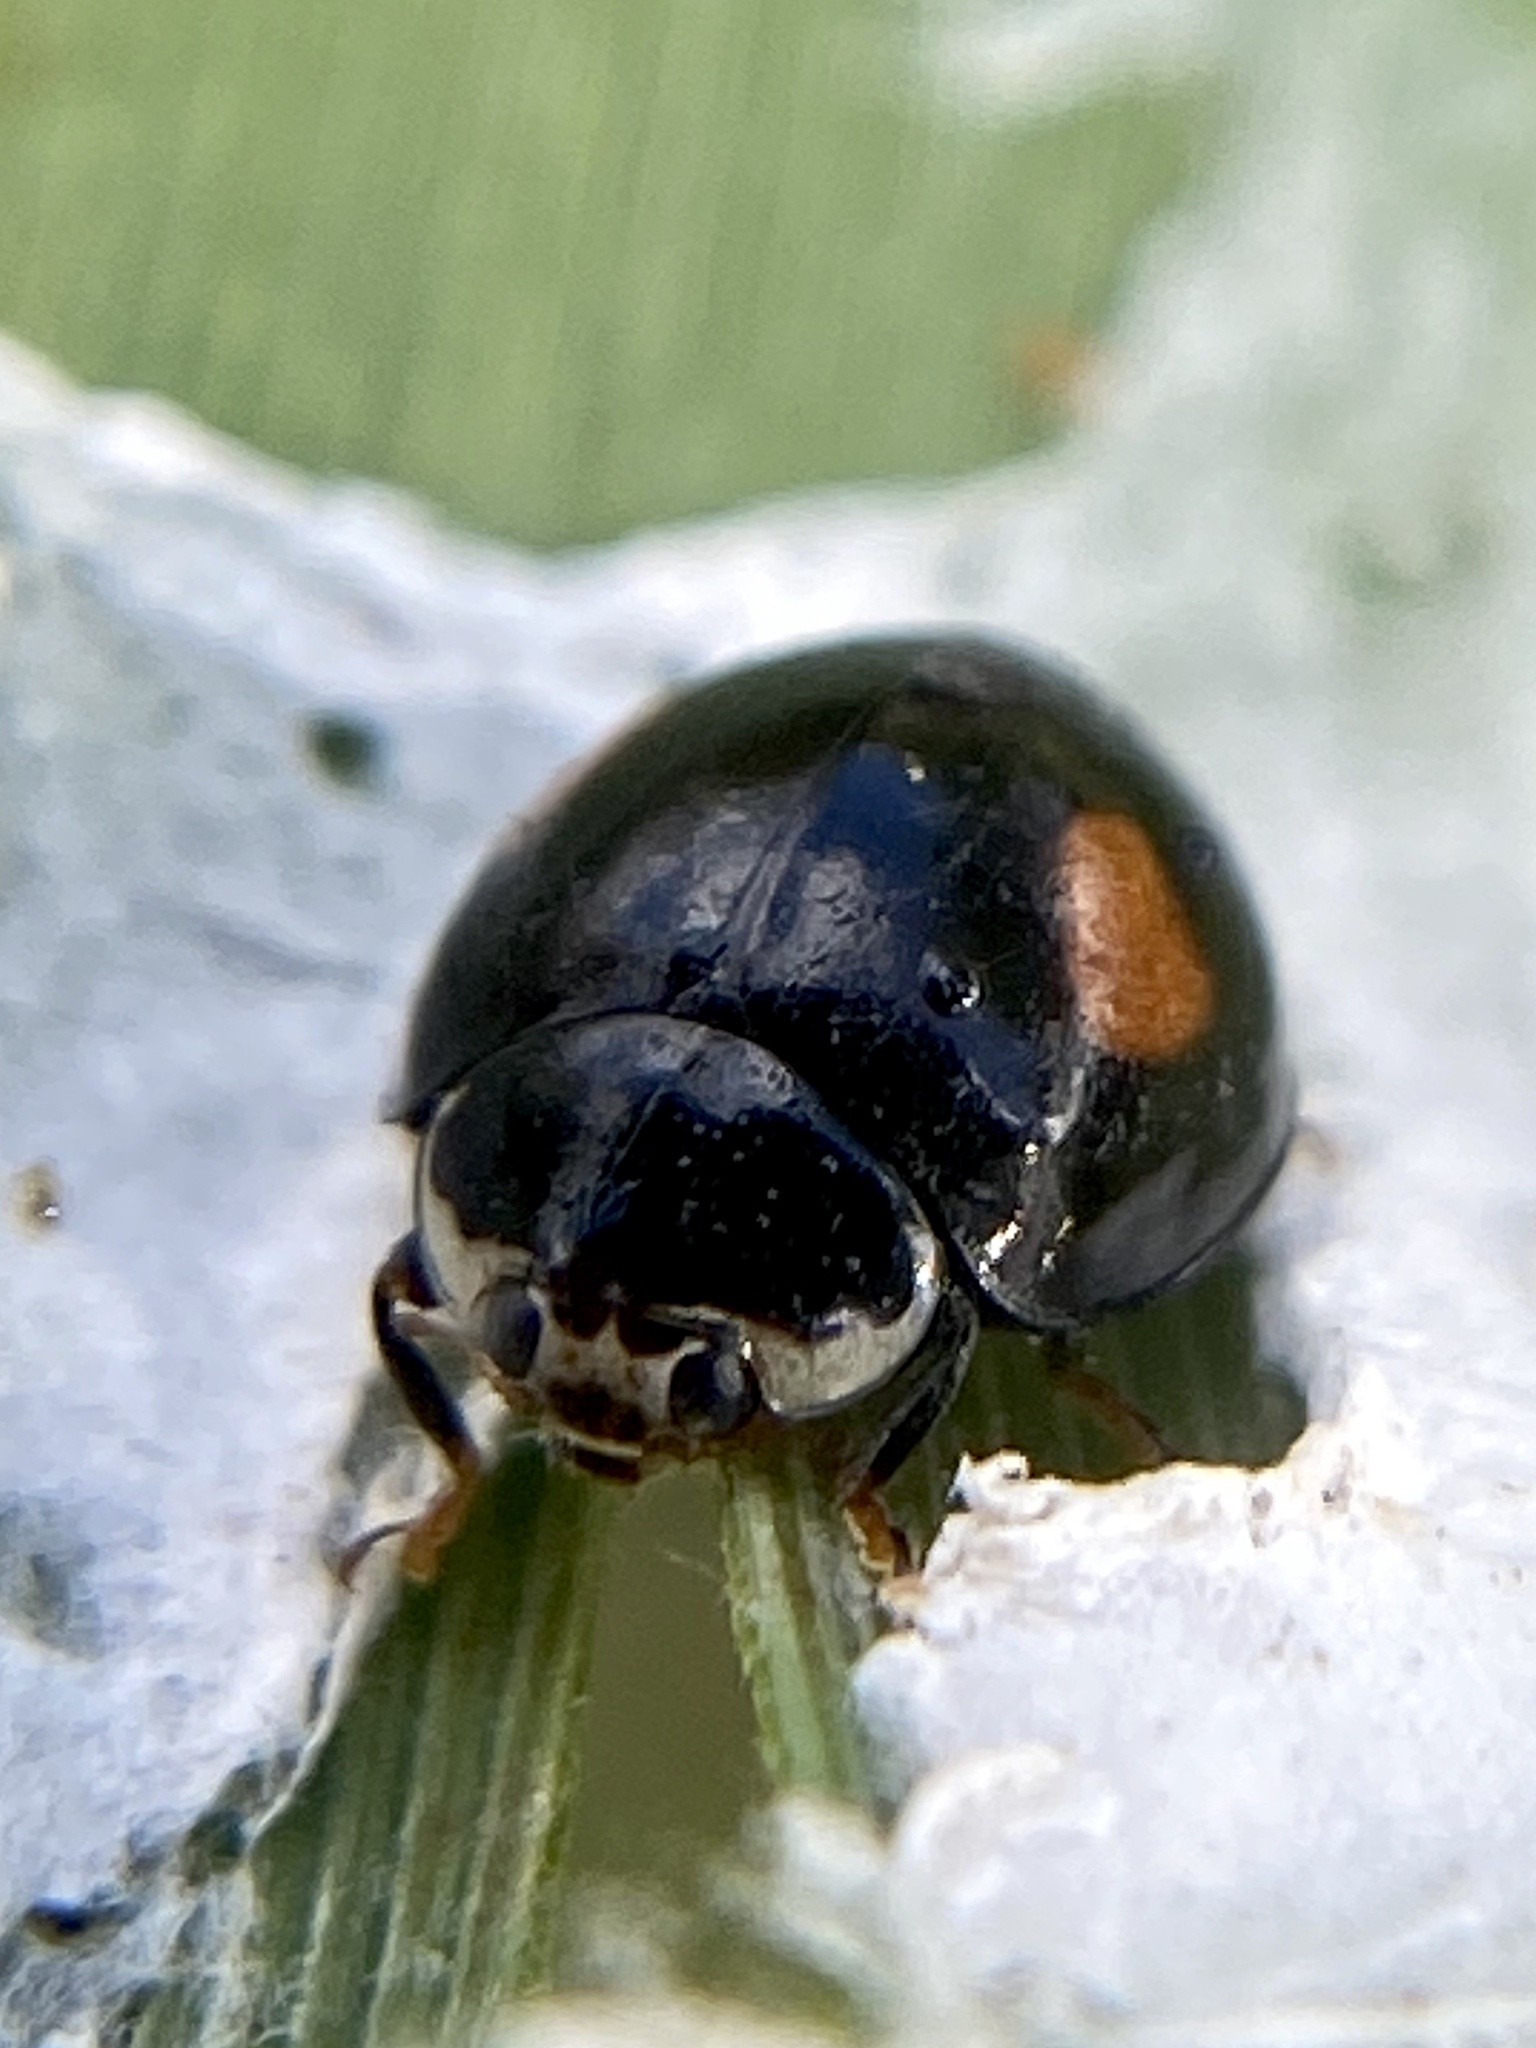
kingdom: Animalia
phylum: Arthropoda
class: Insecta
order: Coleoptera
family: Coccinellidae
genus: Olla
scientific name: Olla v-nigrum
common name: Ashy gray lady beetle
